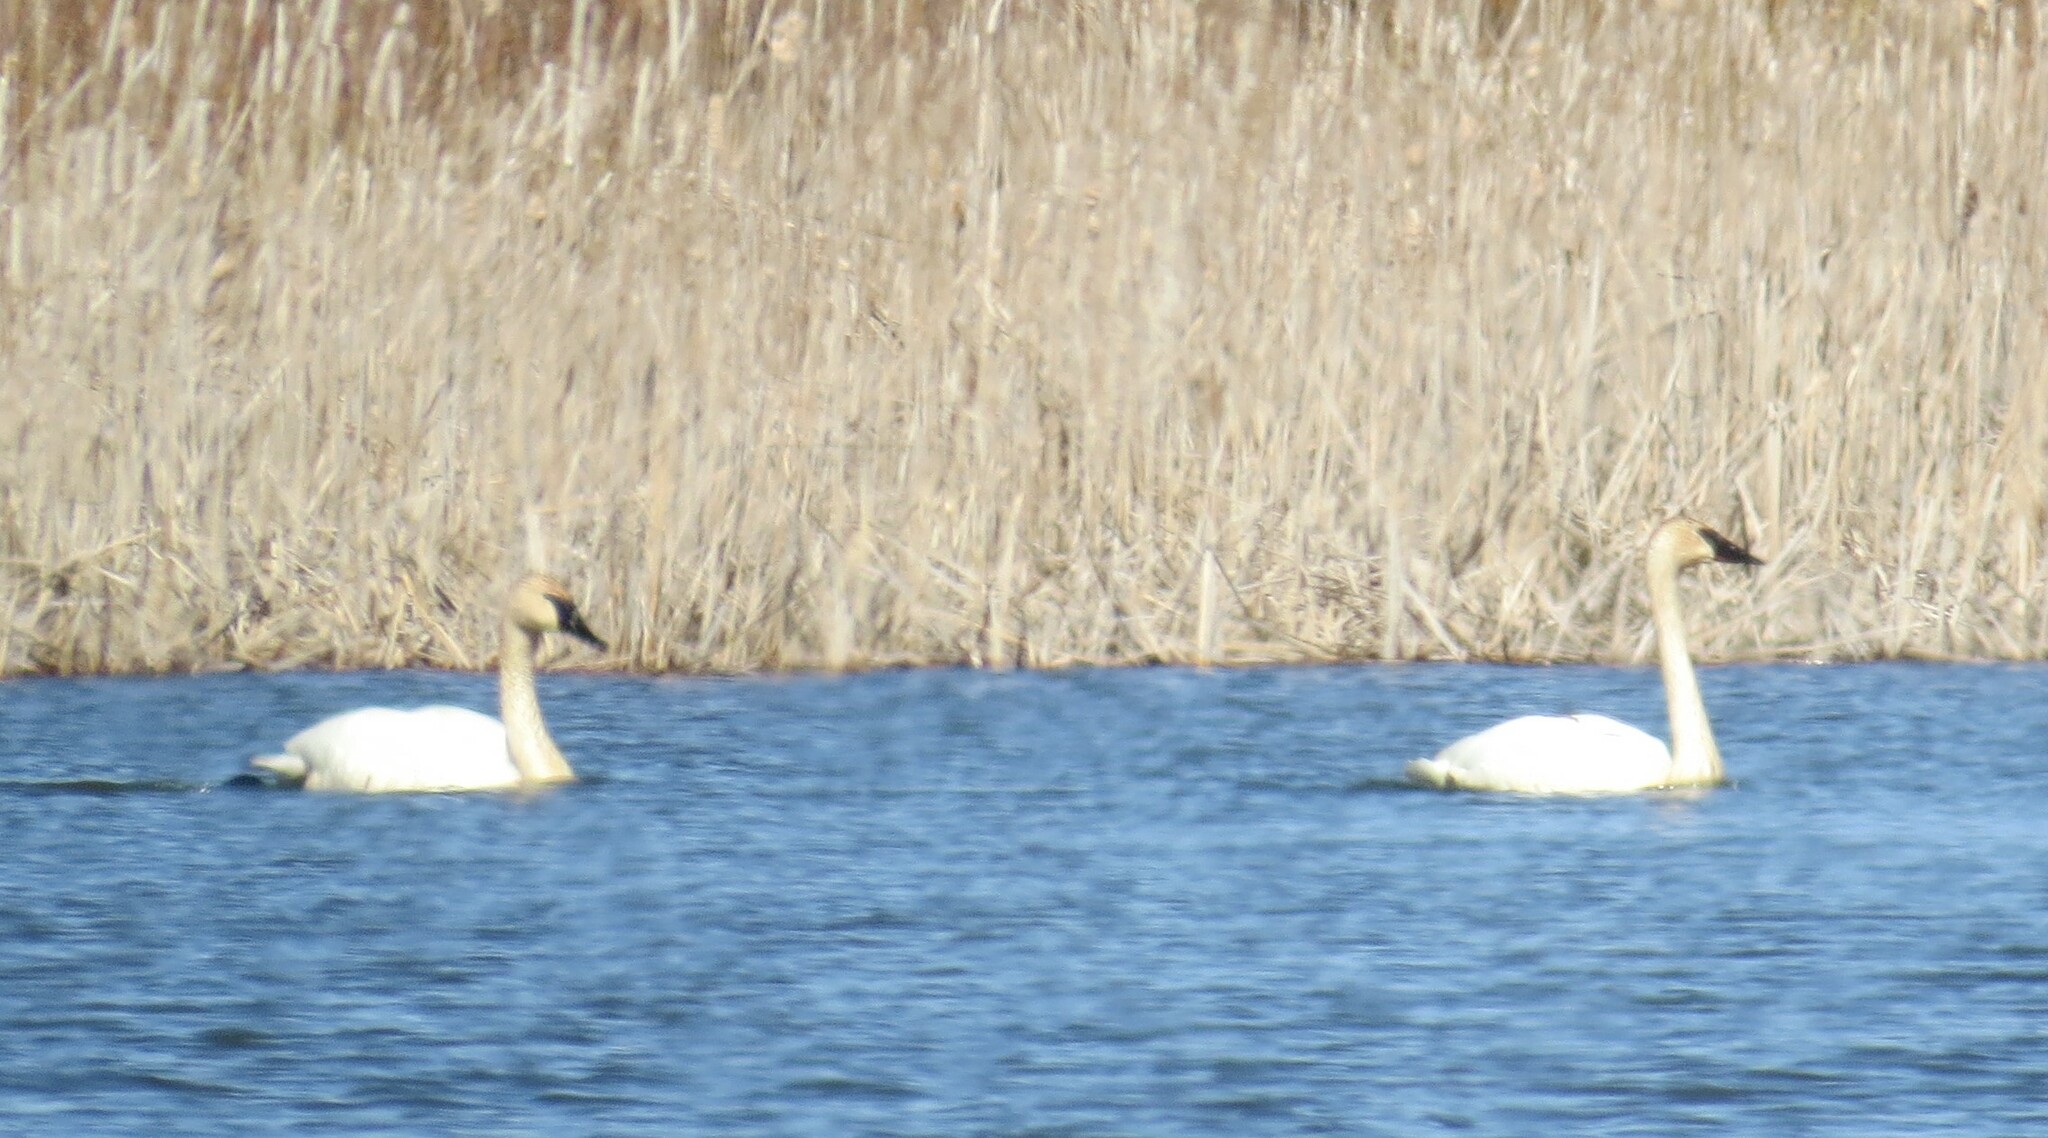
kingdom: Animalia
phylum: Chordata
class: Aves
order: Anseriformes
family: Anatidae
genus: Cygnus
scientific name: Cygnus buccinator
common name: Trumpeter swan
